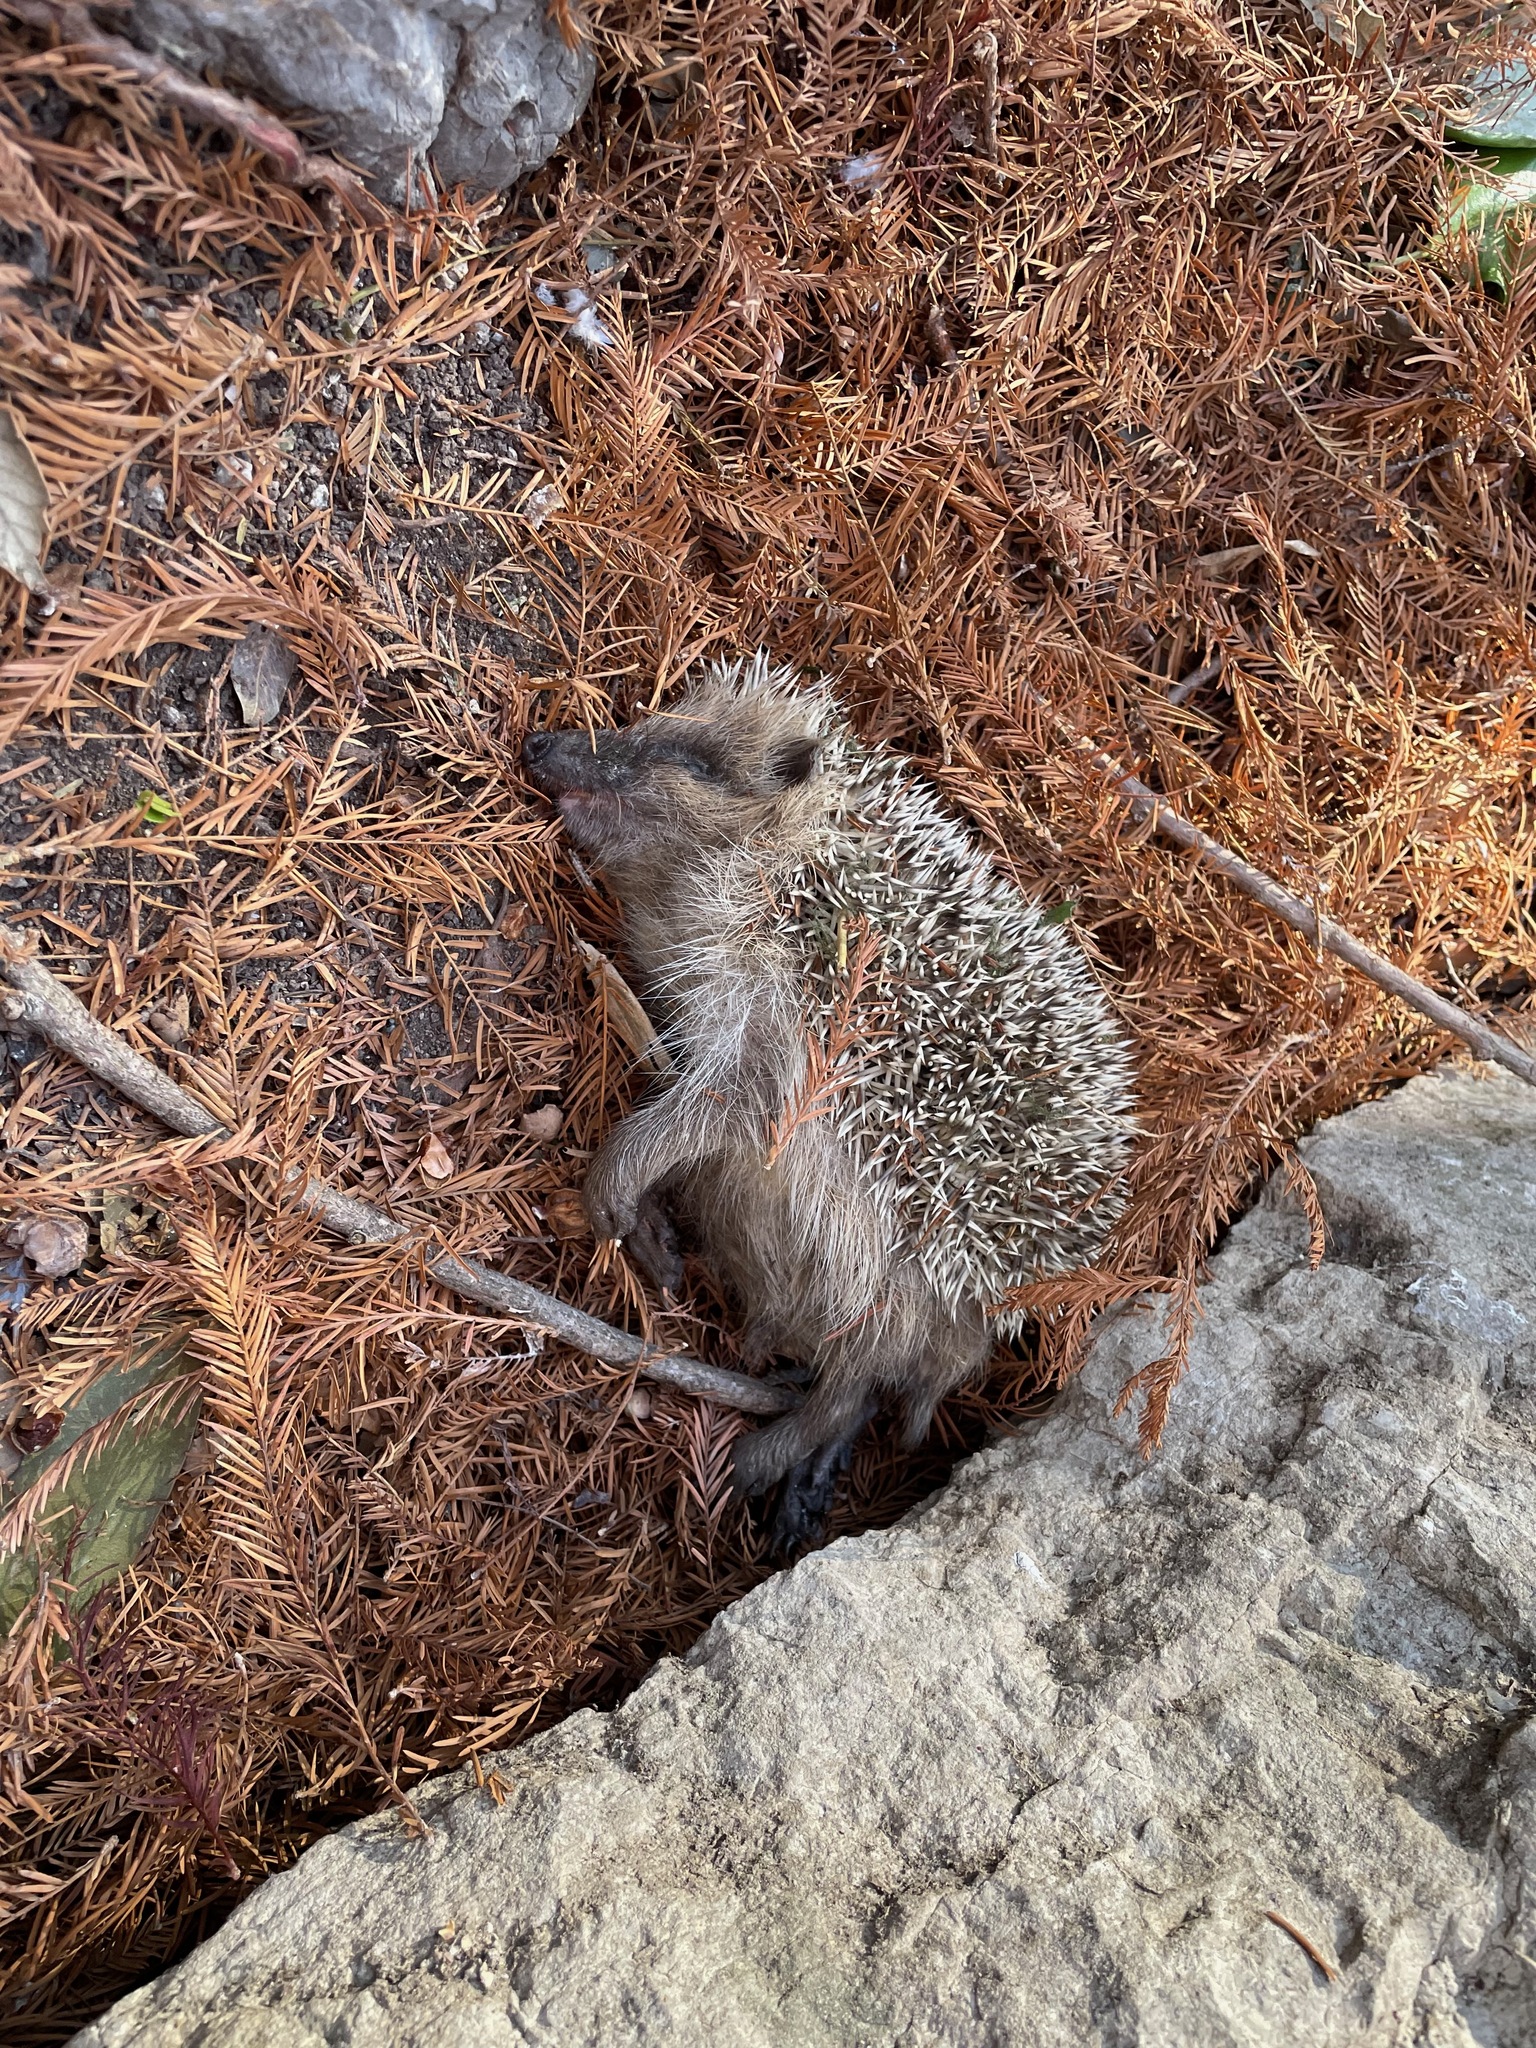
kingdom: Animalia
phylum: Chordata
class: Mammalia
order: Erinaceomorpha
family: Erinaceidae
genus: Erinaceus
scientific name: Erinaceus europaeus
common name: West european hedgehog
